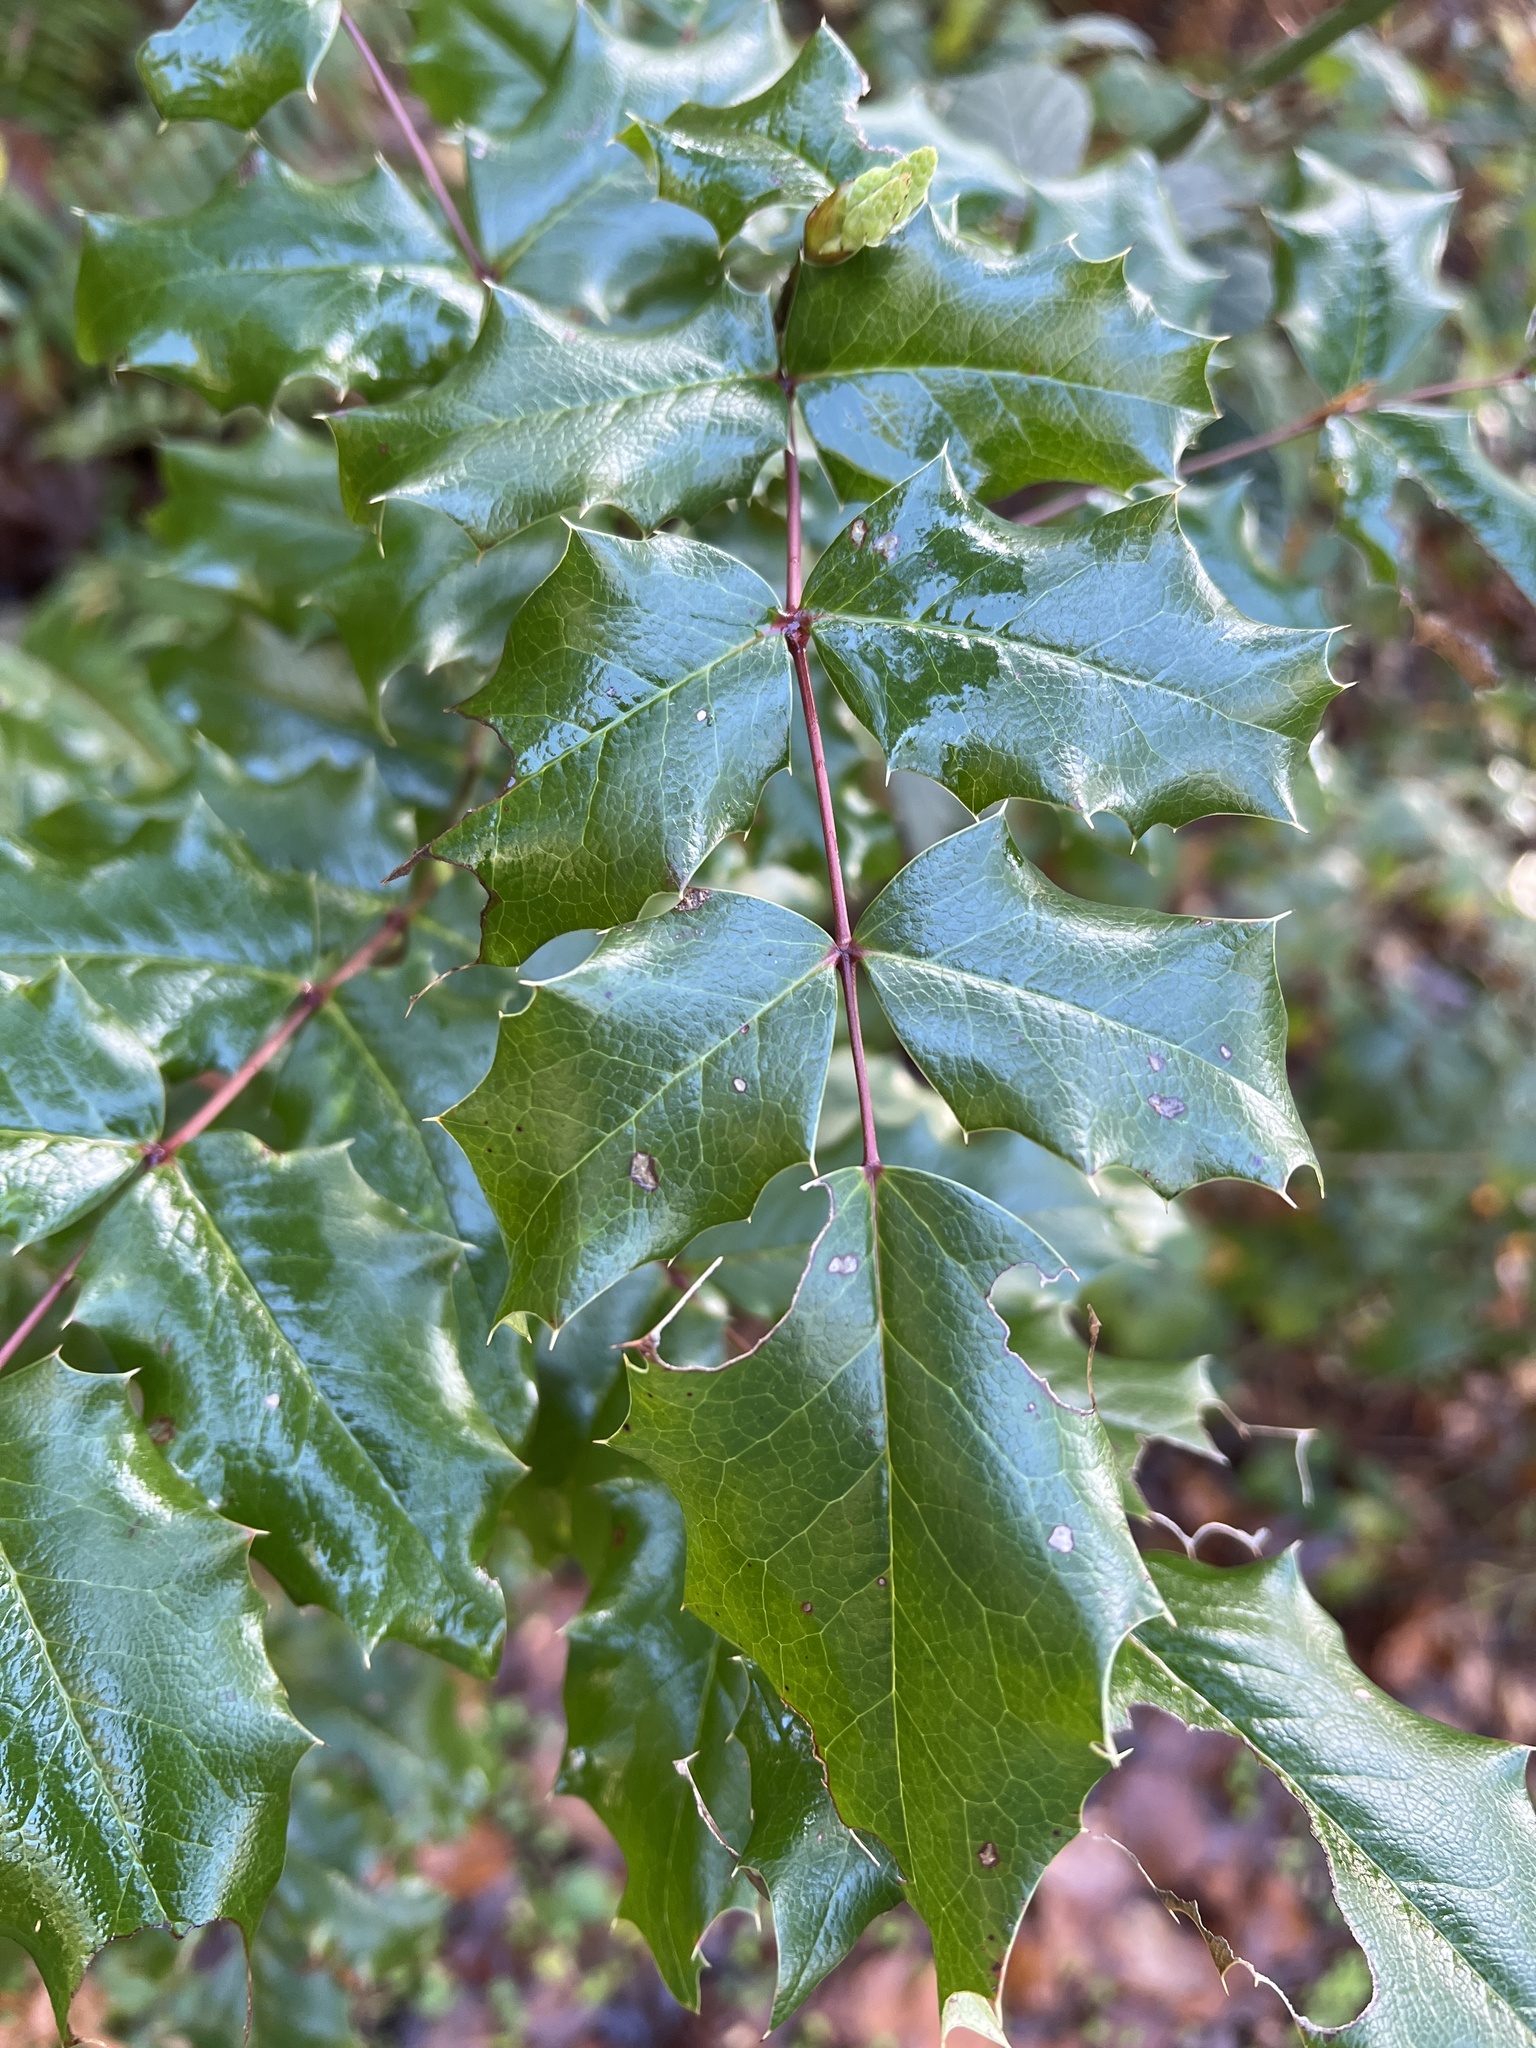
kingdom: Plantae
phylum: Tracheophyta
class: Magnoliopsida
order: Ranunculales
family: Berberidaceae
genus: Mahonia
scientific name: Mahonia aquifolium
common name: Oregon-grape
